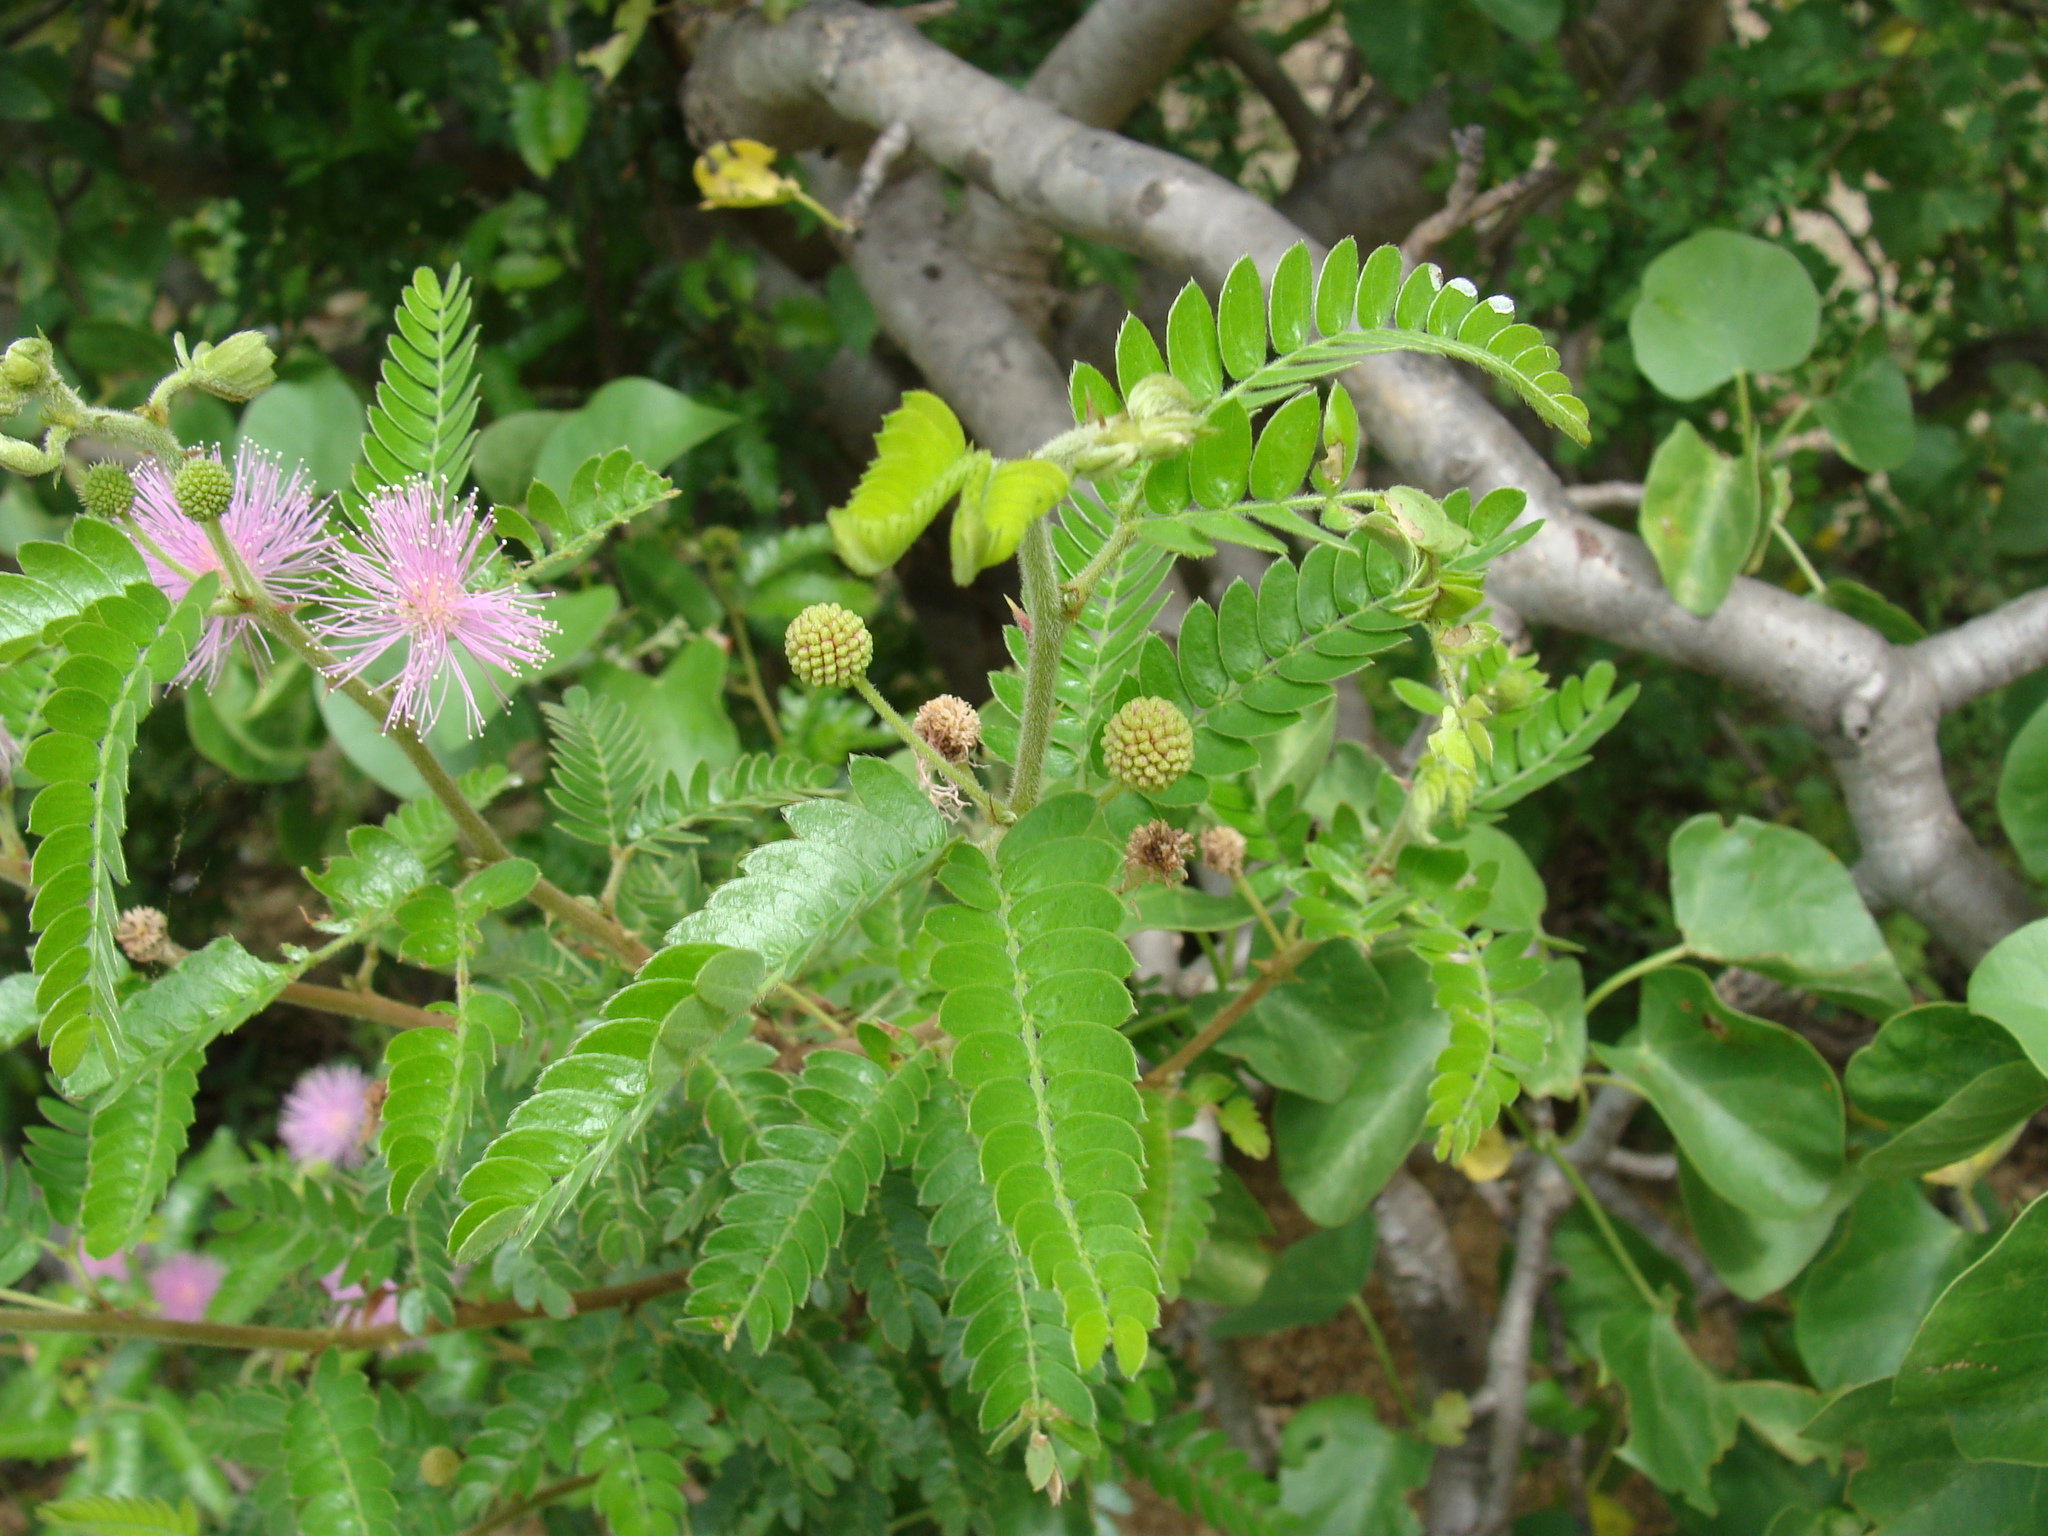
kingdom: Plantae
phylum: Tracheophyta
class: Magnoliopsida
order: Fabales
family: Fabaceae
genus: Mimosa
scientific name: Mimosa tricephala
